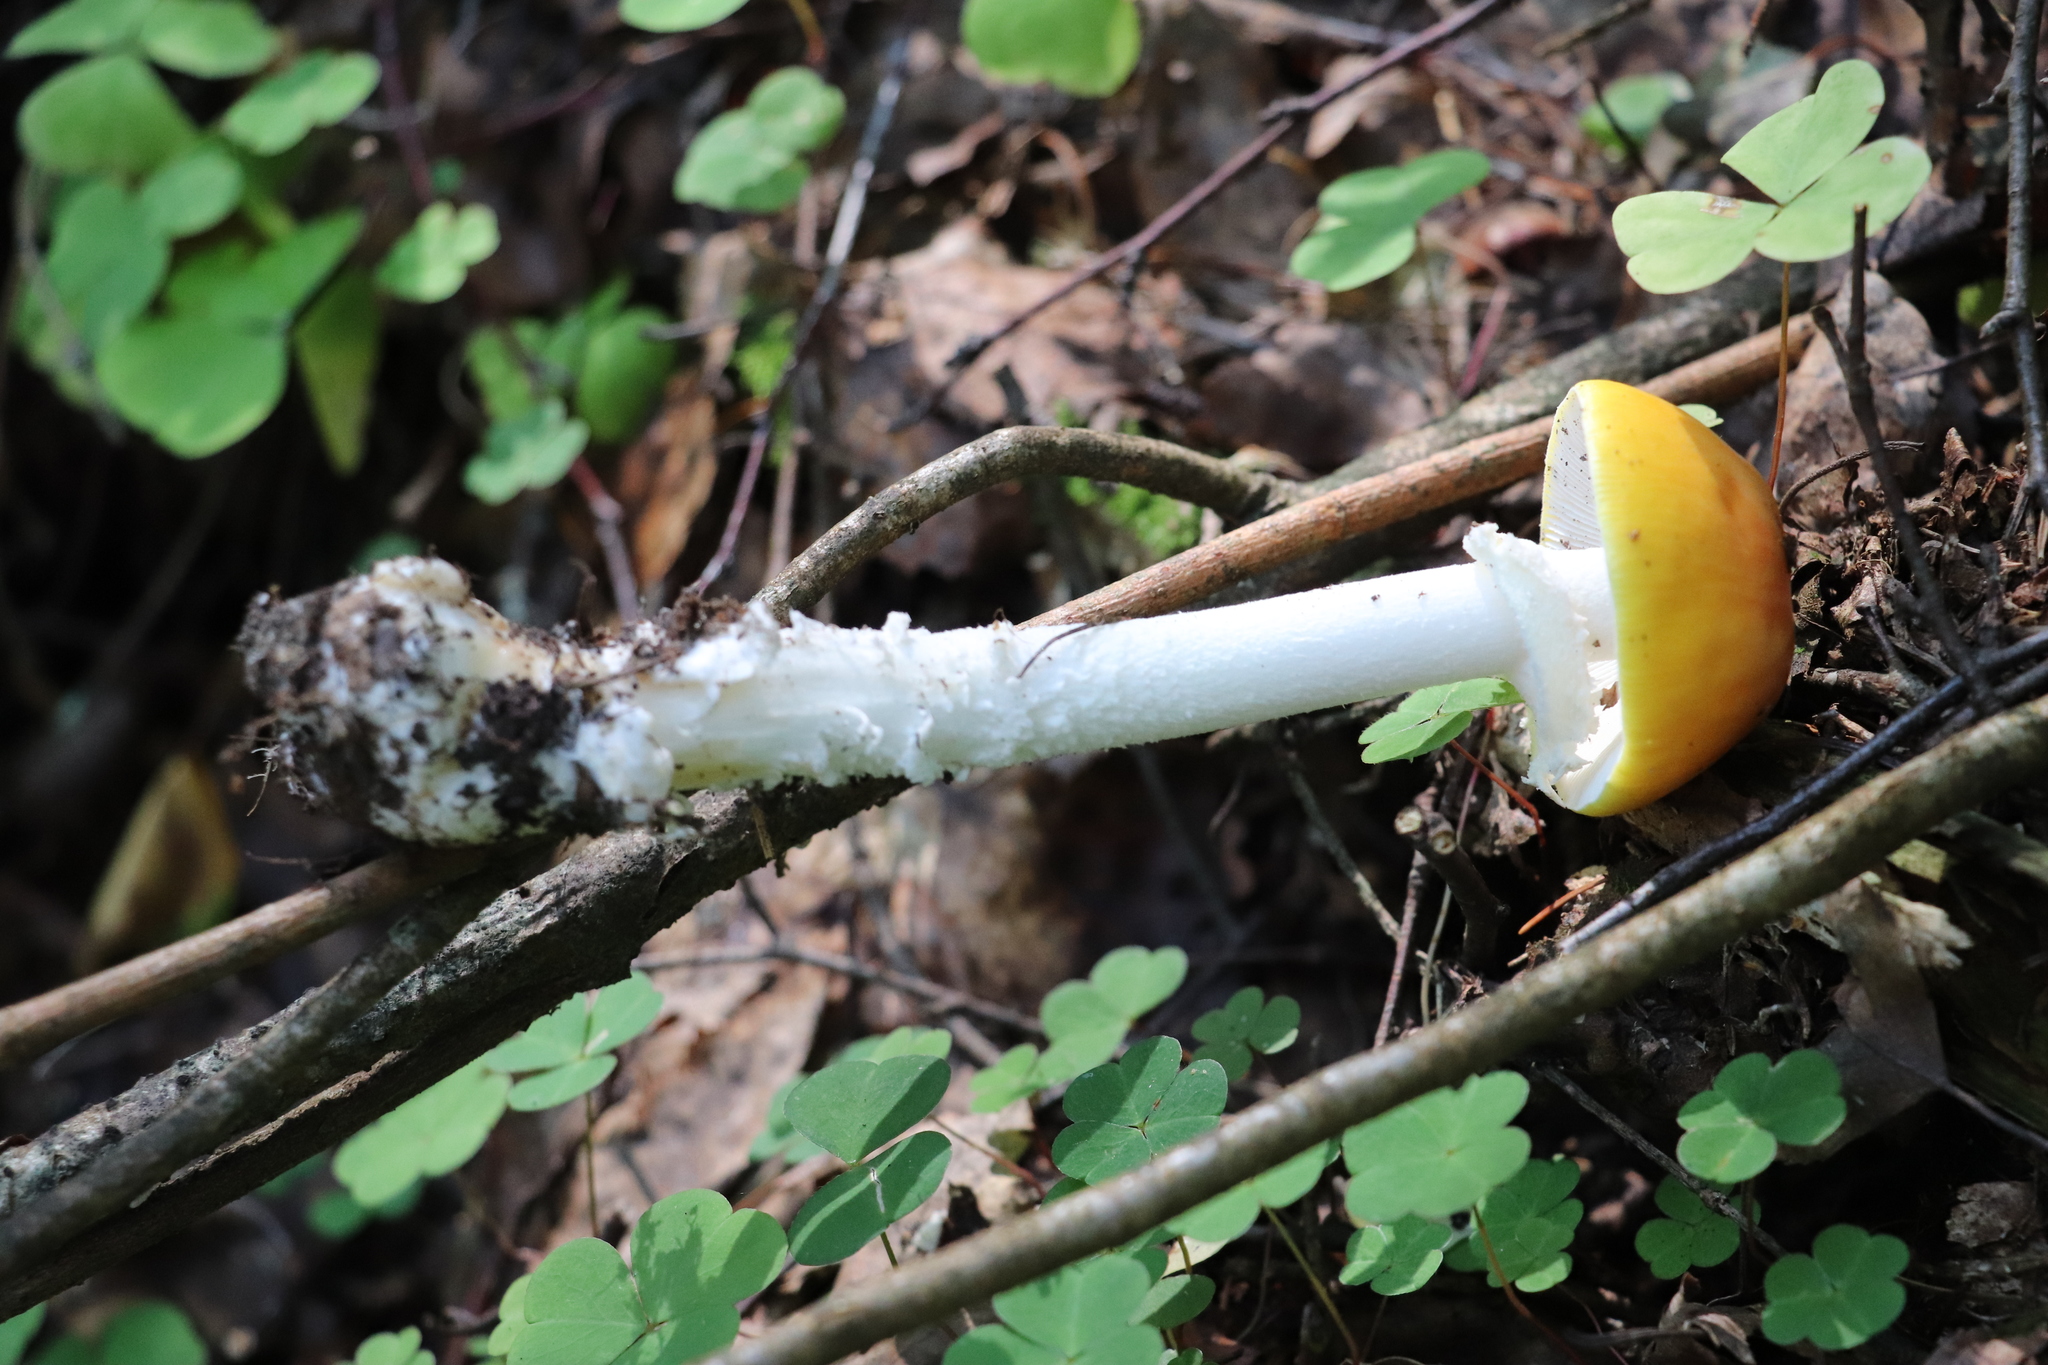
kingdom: Fungi
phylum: Basidiomycota
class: Agaricomycetes
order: Agaricales
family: Amanitaceae
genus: Amanita
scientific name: Amanita muscaria
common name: Fly agaric
